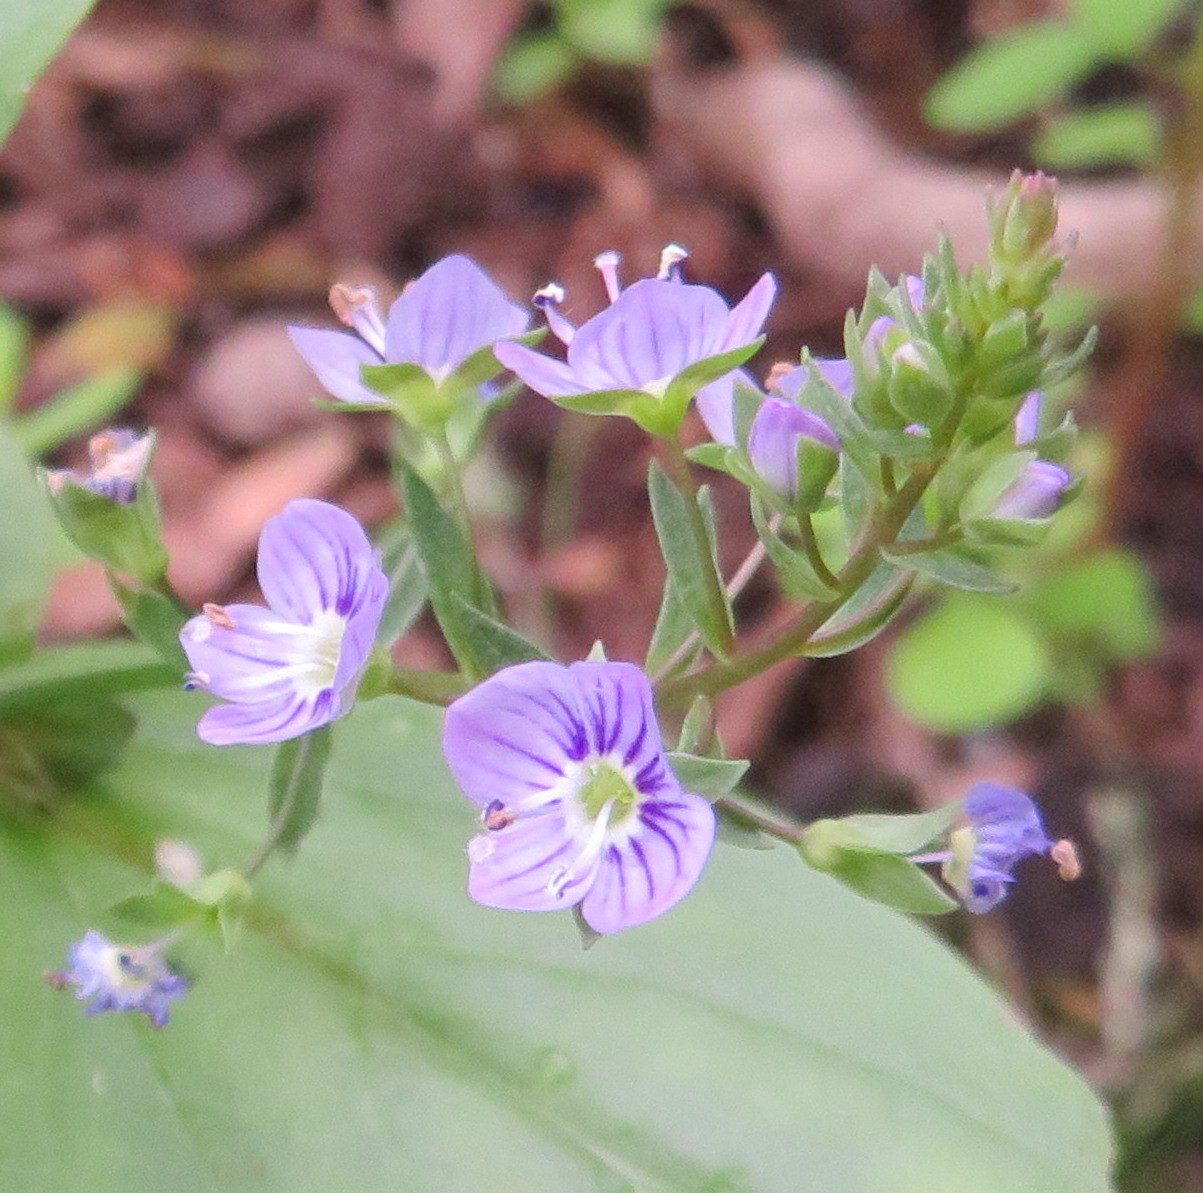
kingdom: Plantae
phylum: Tracheophyta
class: Magnoliopsida
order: Lamiales
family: Plantaginaceae
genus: Veronica
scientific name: Veronica anagallis-aquatica
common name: Water speedwell
